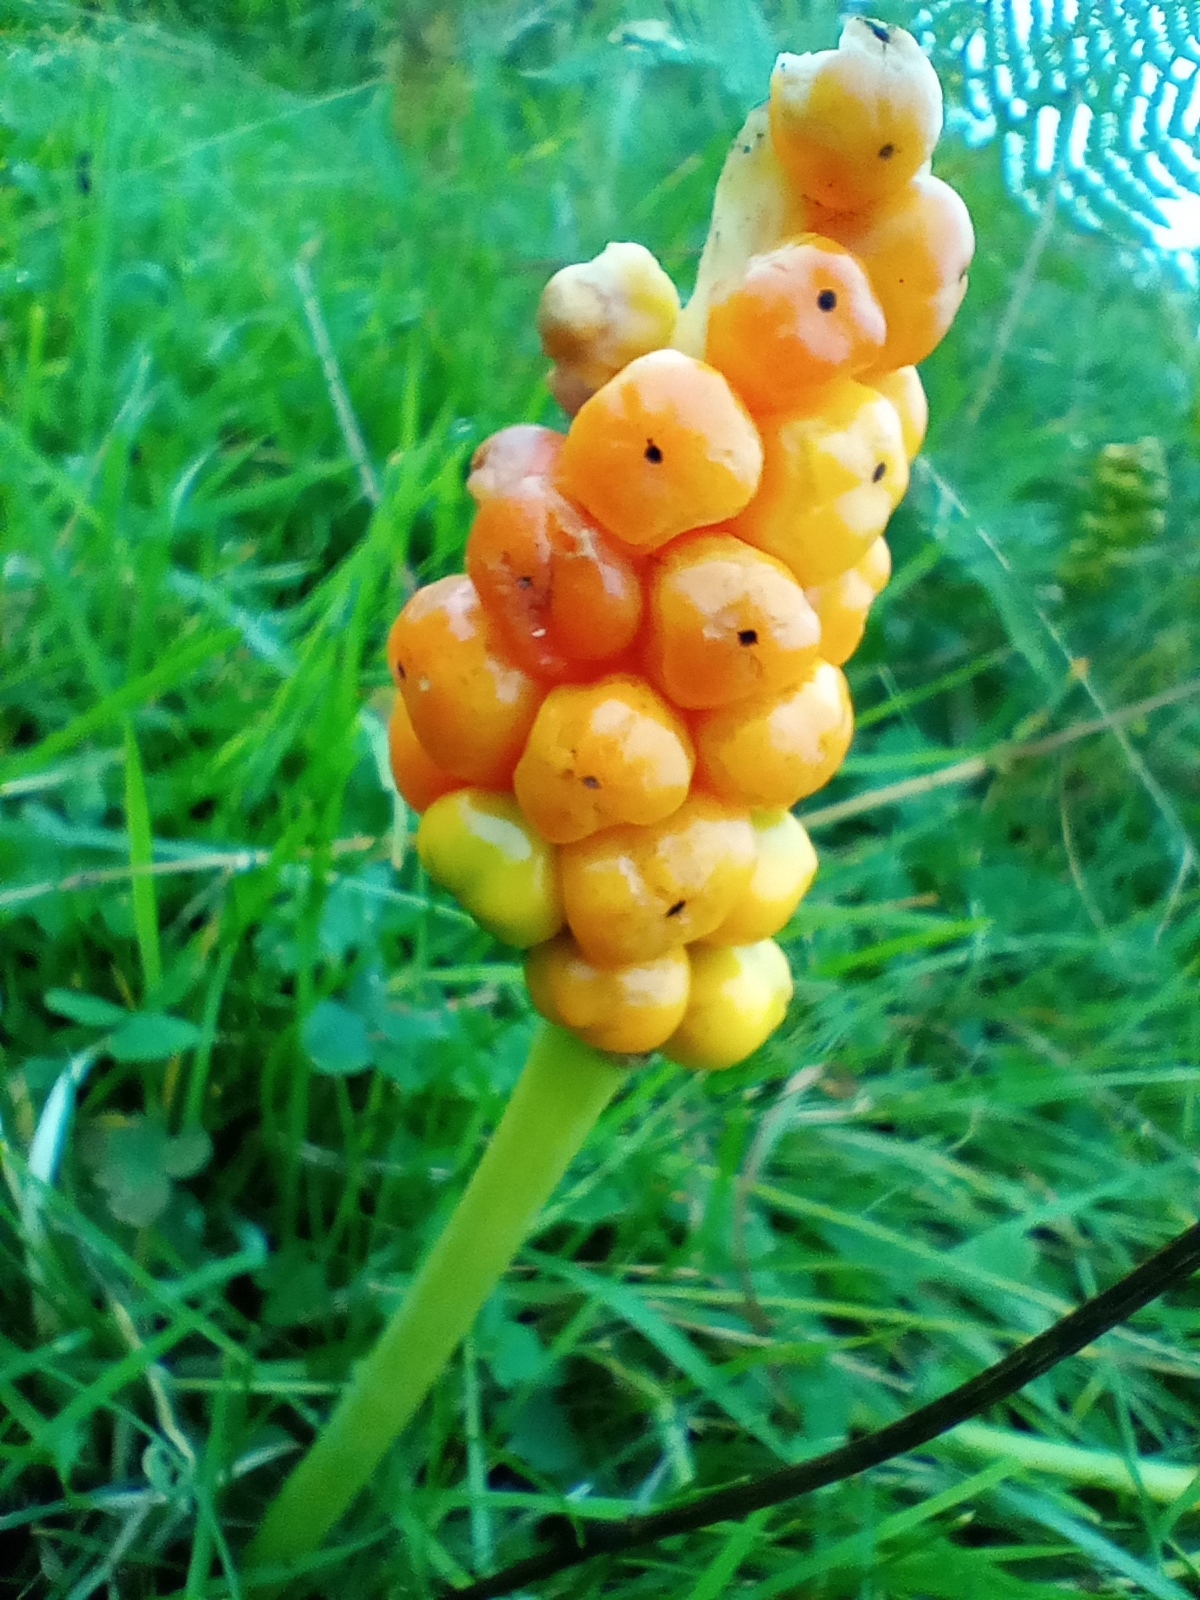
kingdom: Plantae
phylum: Tracheophyta
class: Liliopsida
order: Alismatales
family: Araceae
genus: Arum
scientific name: Arum maculatum
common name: Lords-and-ladies
